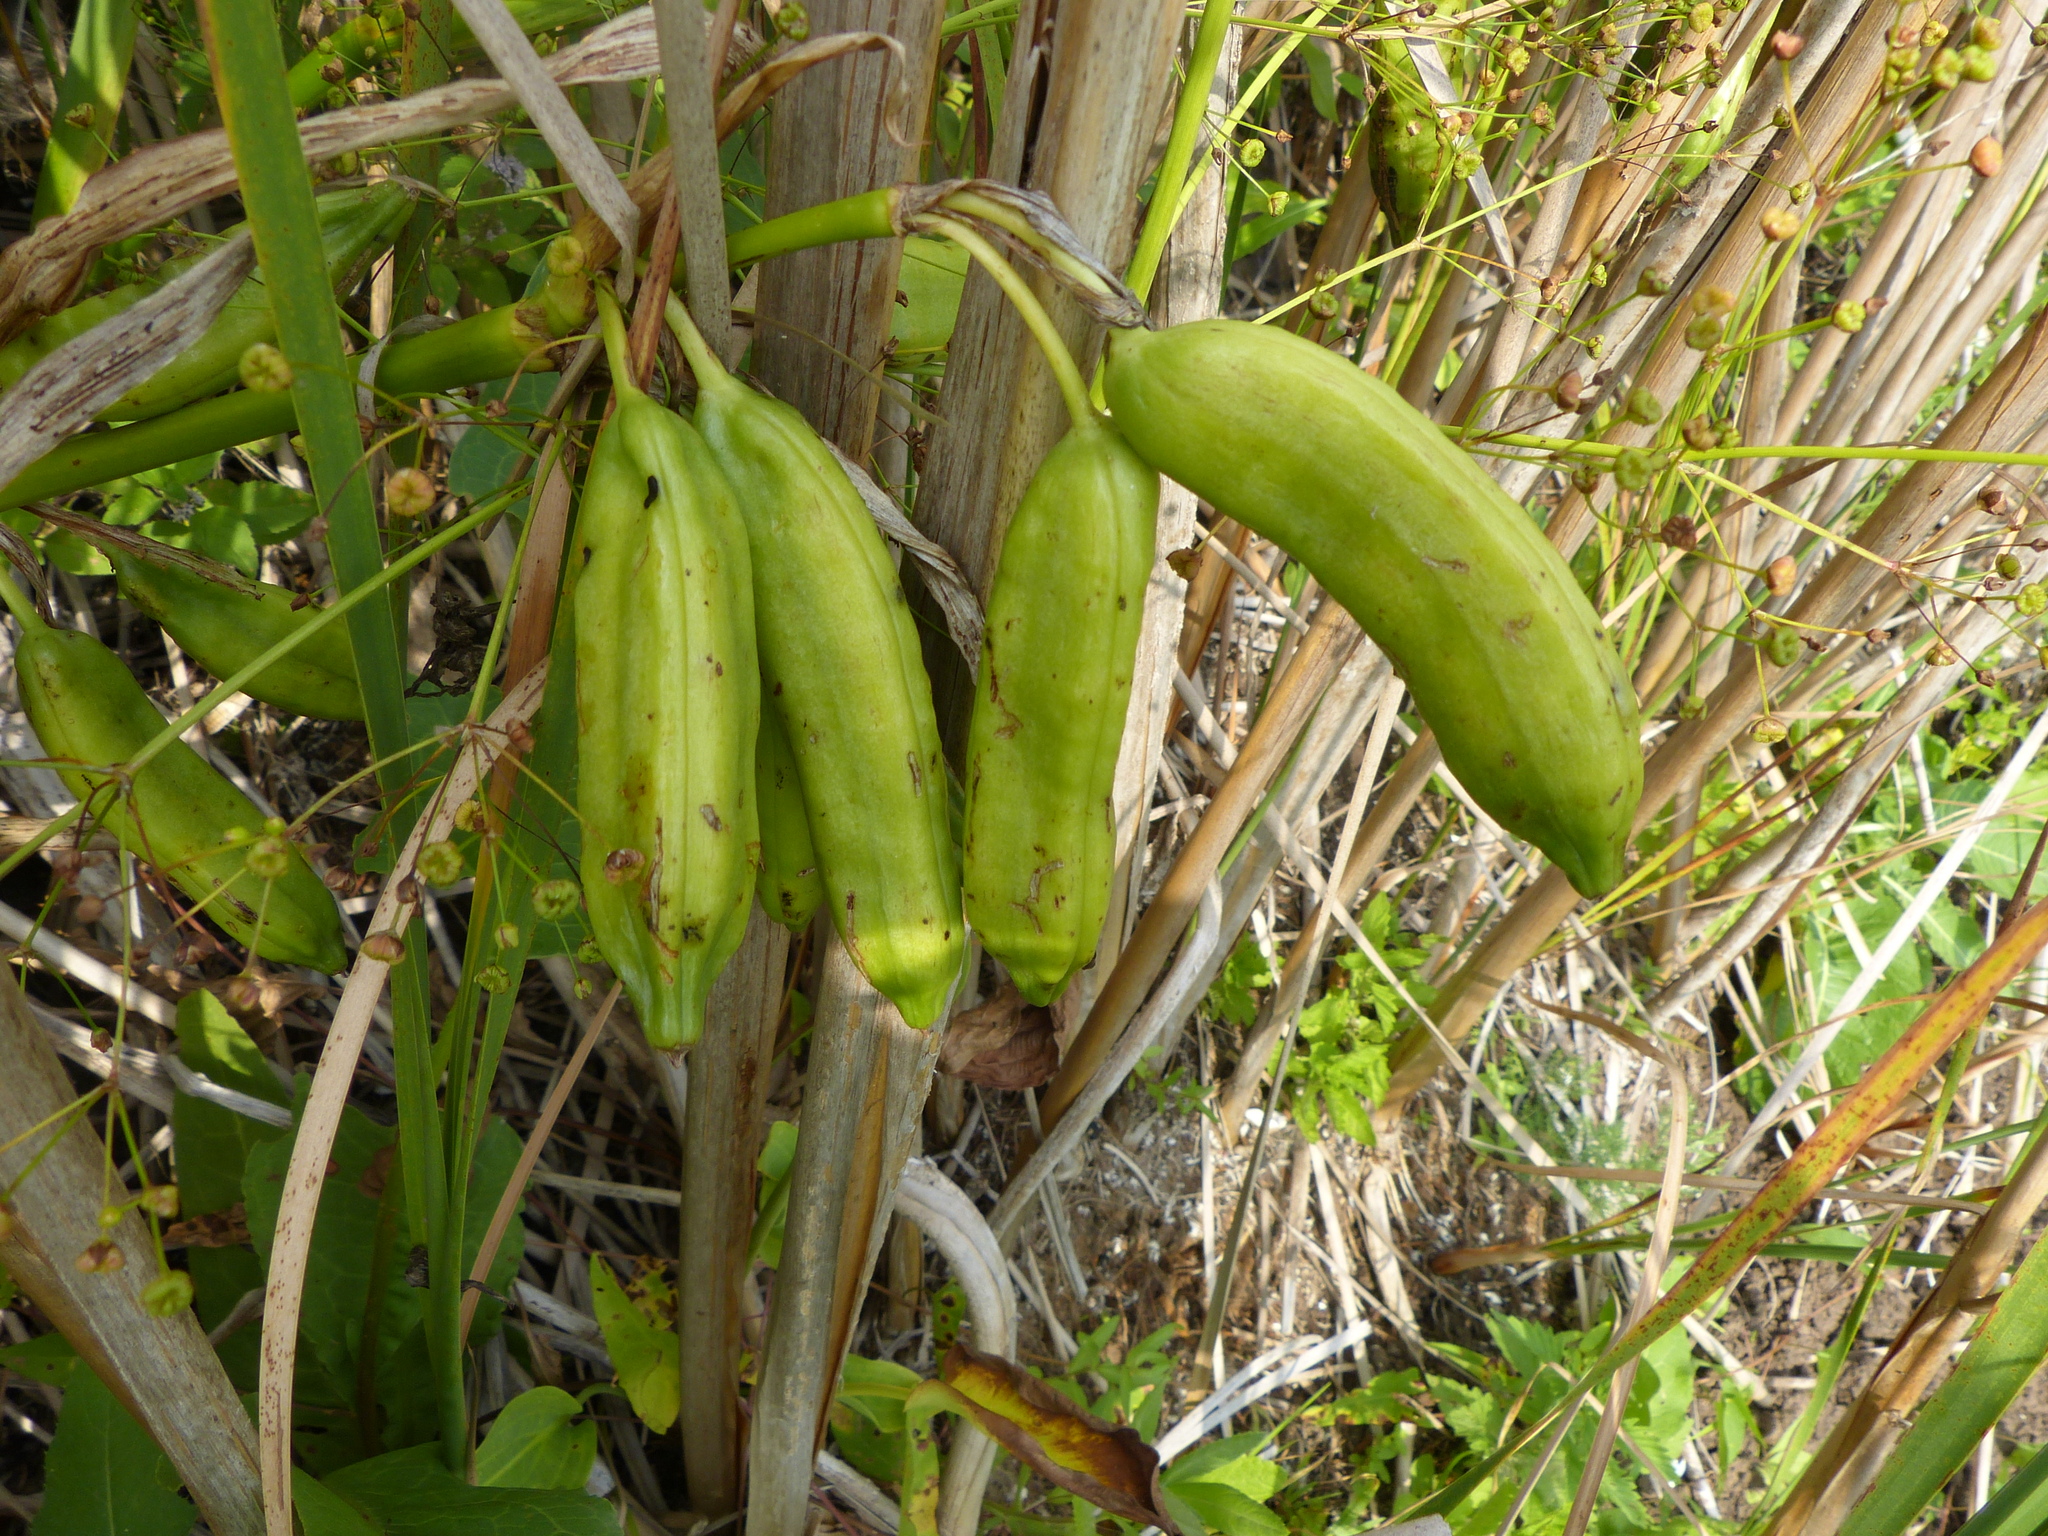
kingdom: Plantae
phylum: Tracheophyta
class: Liliopsida
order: Asparagales
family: Iridaceae
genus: Iris
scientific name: Iris pseudacorus
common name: Yellow flag
